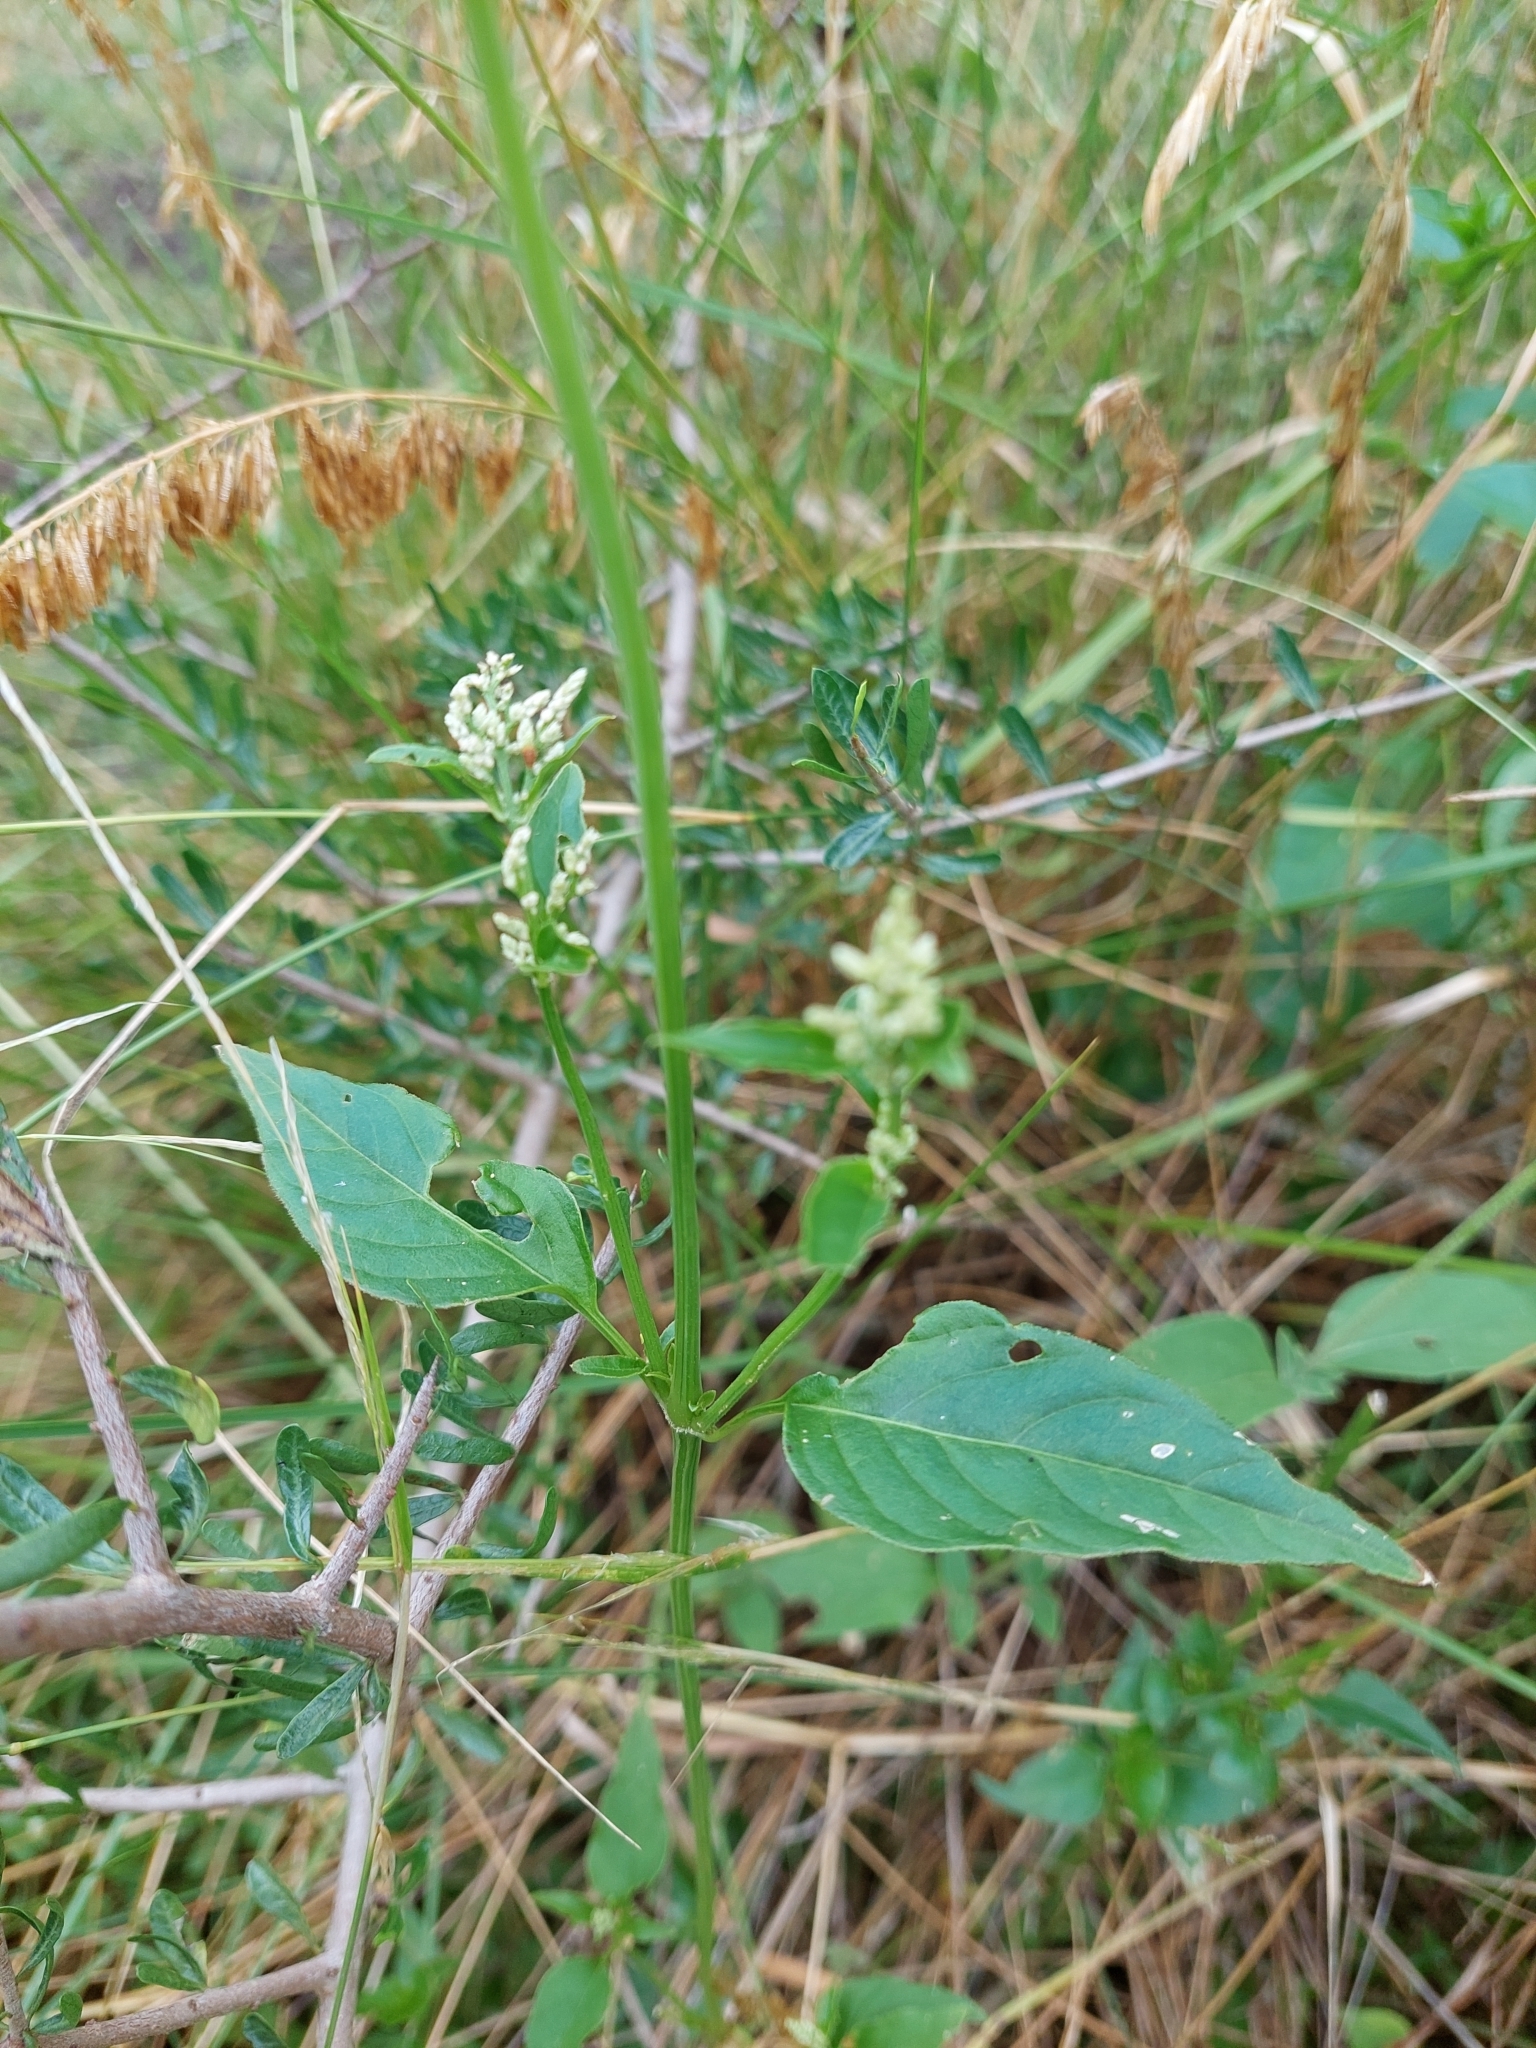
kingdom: Plantae
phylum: Tracheophyta
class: Magnoliopsida
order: Caryophyllales
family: Amaranthaceae
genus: Iresine
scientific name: Iresine diffusa
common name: Juba's-bush
